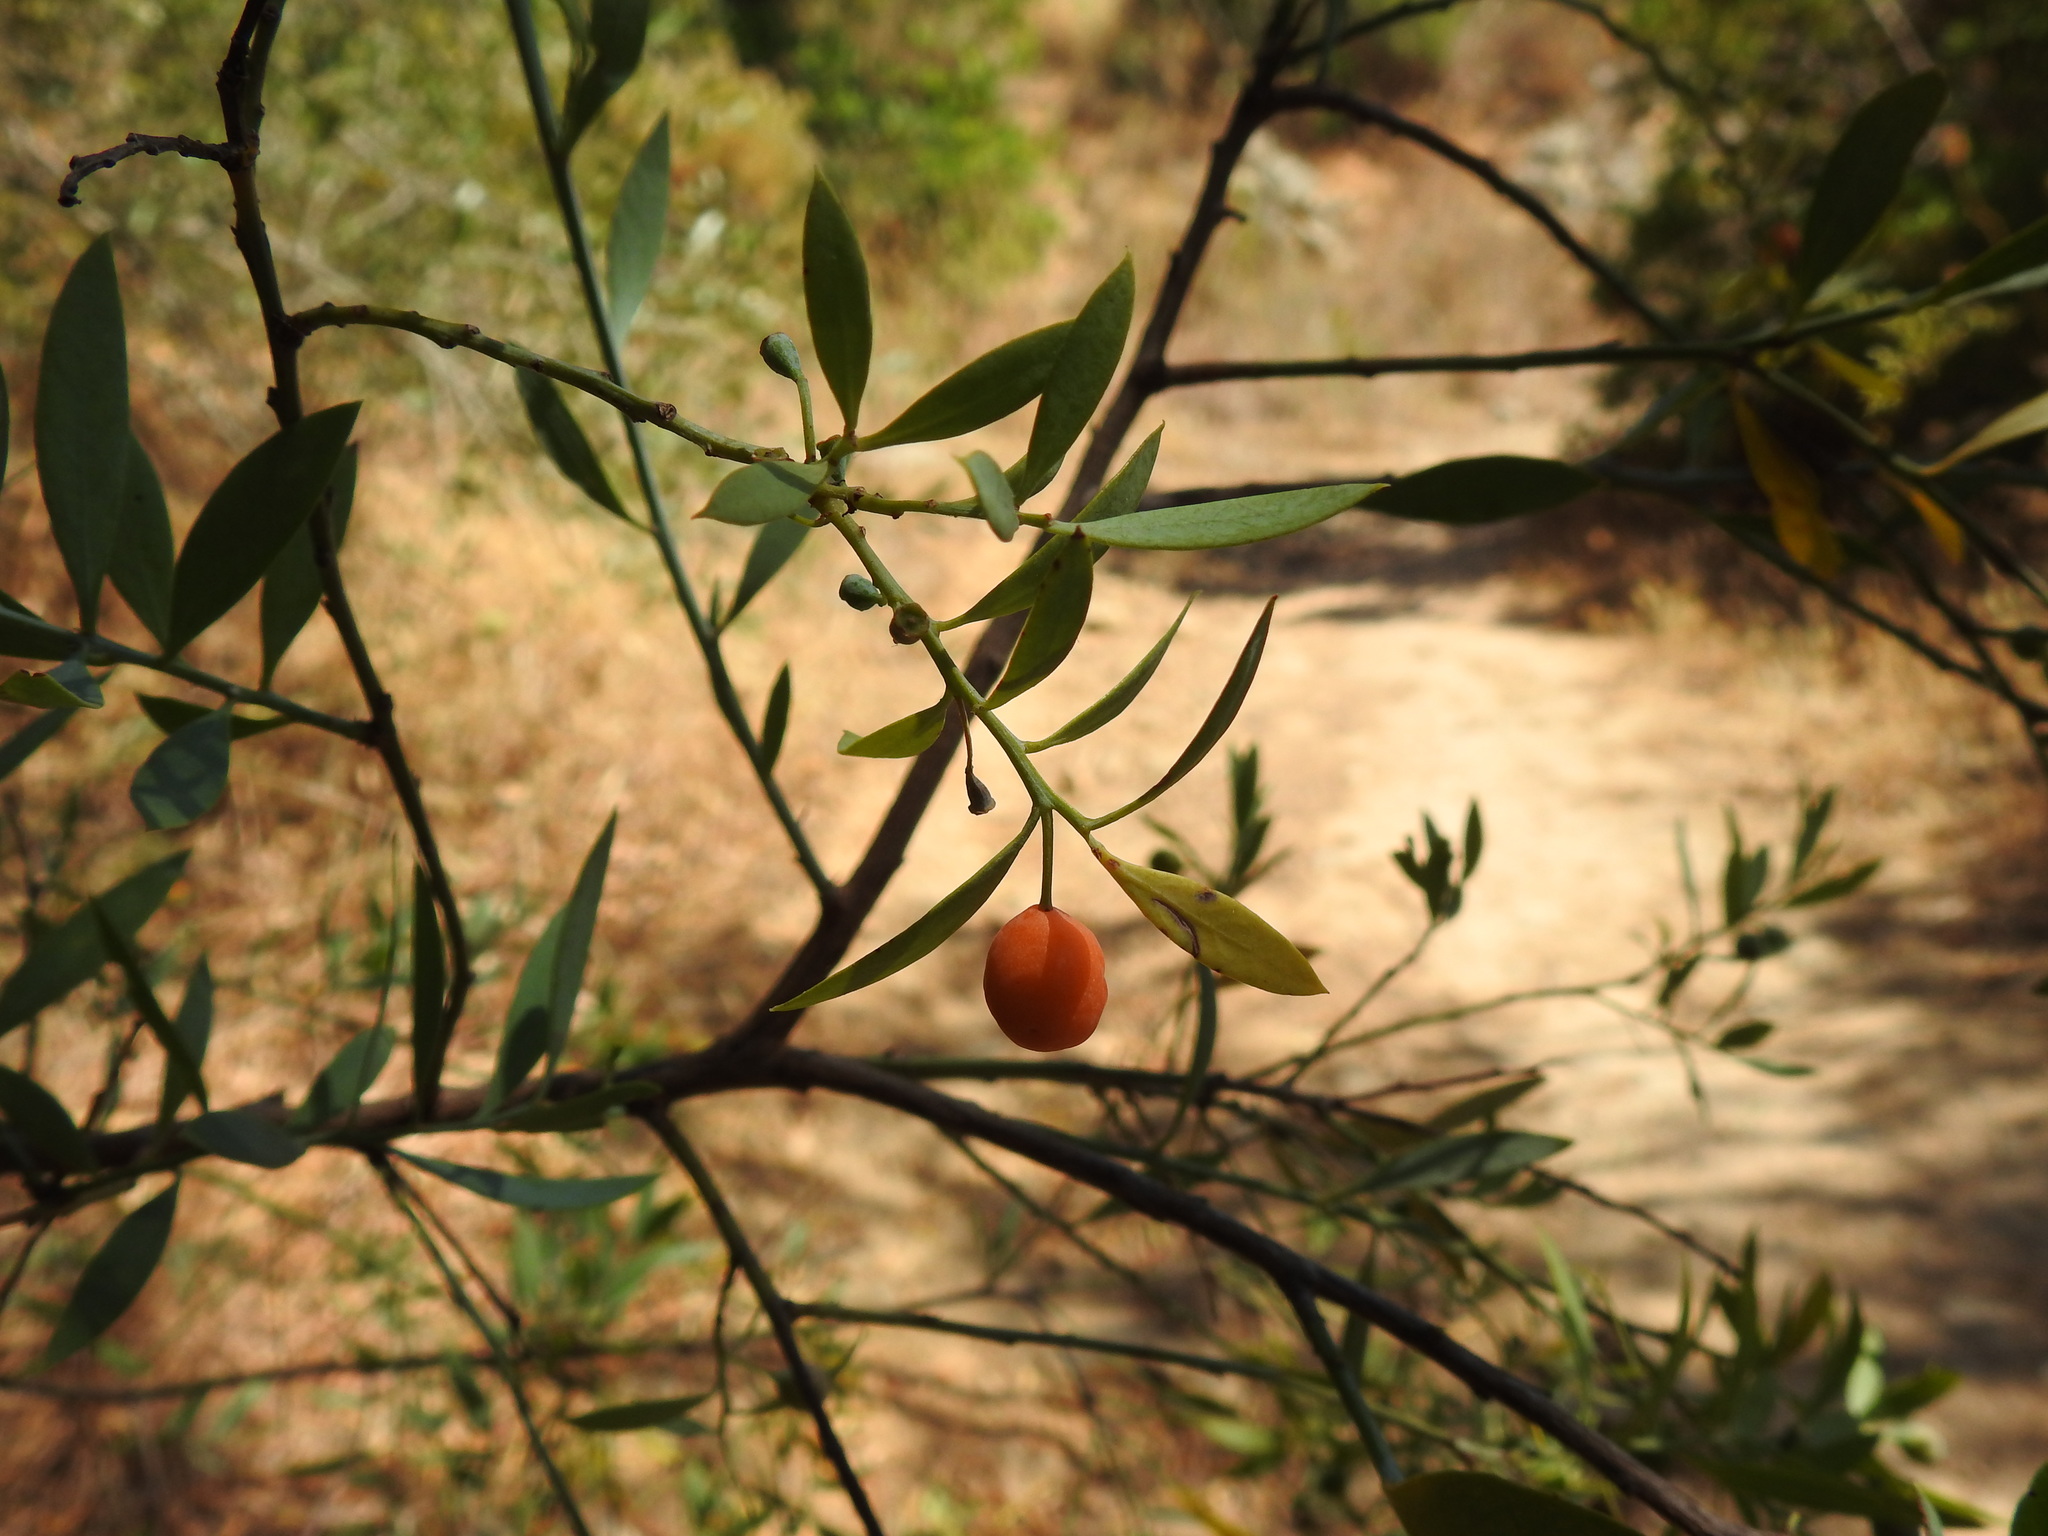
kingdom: Plantae
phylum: Tracheophyta
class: Magnoliopsida
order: Santalales
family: Santalaceae
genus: Osyris
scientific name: Osyris lanceolata
